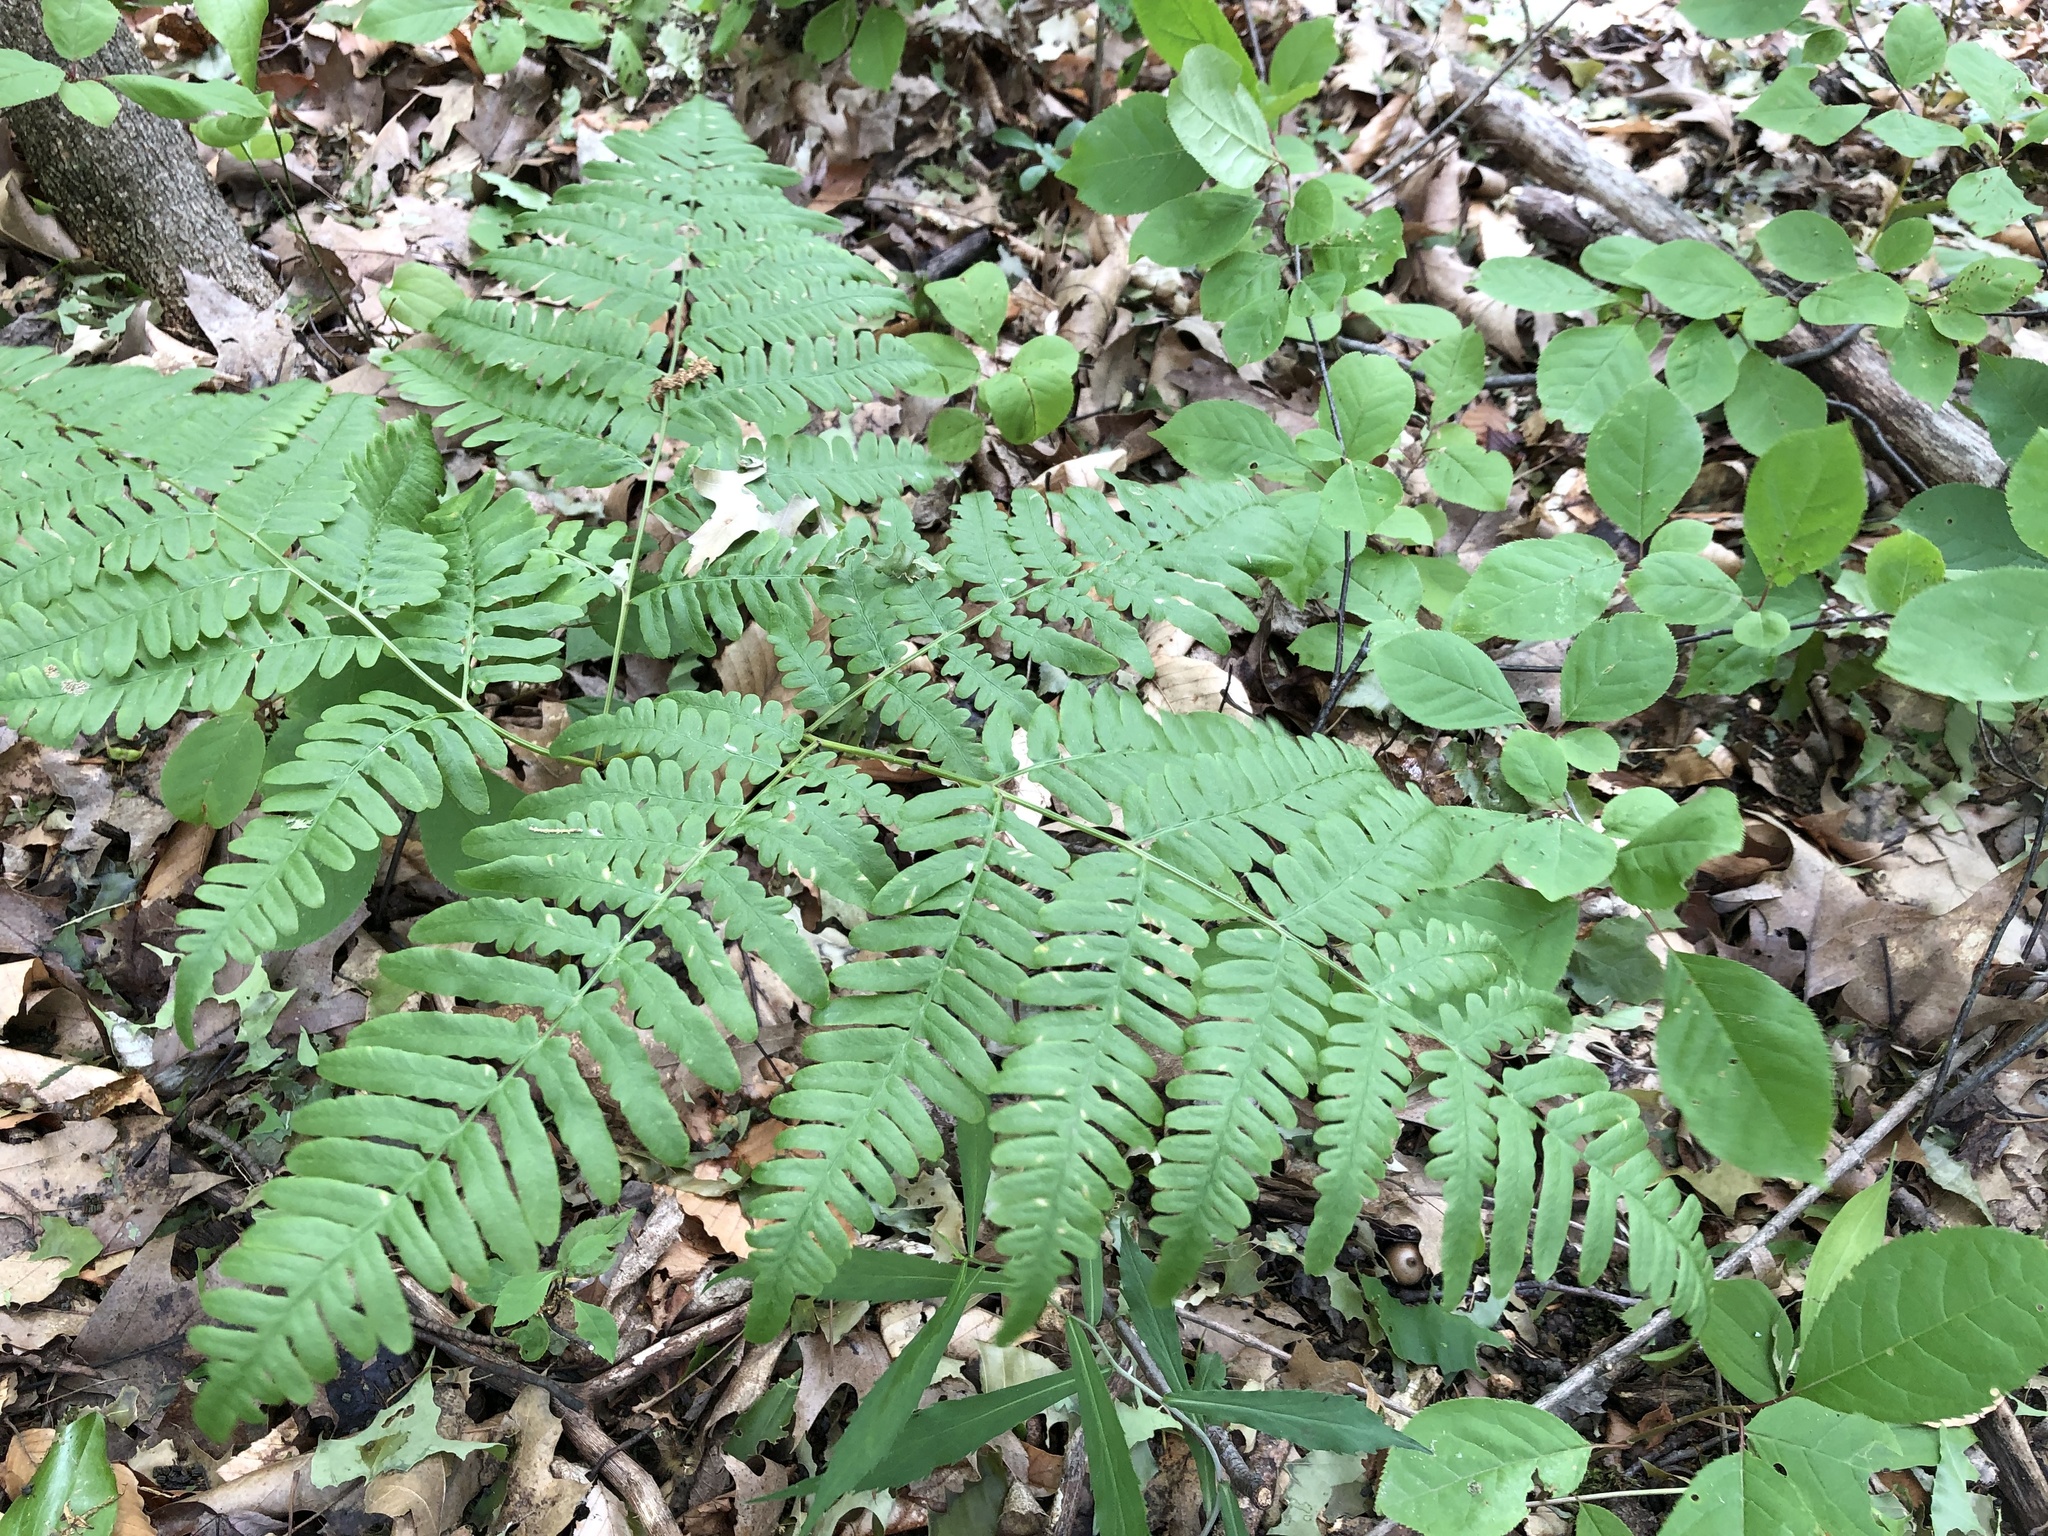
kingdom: Plantae
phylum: Tracheophyta
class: Polypodiopsida
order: Polypodiales
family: Dennstaedtiaceae
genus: Pteridium
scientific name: Pteridium aquilinum
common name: Bracken
